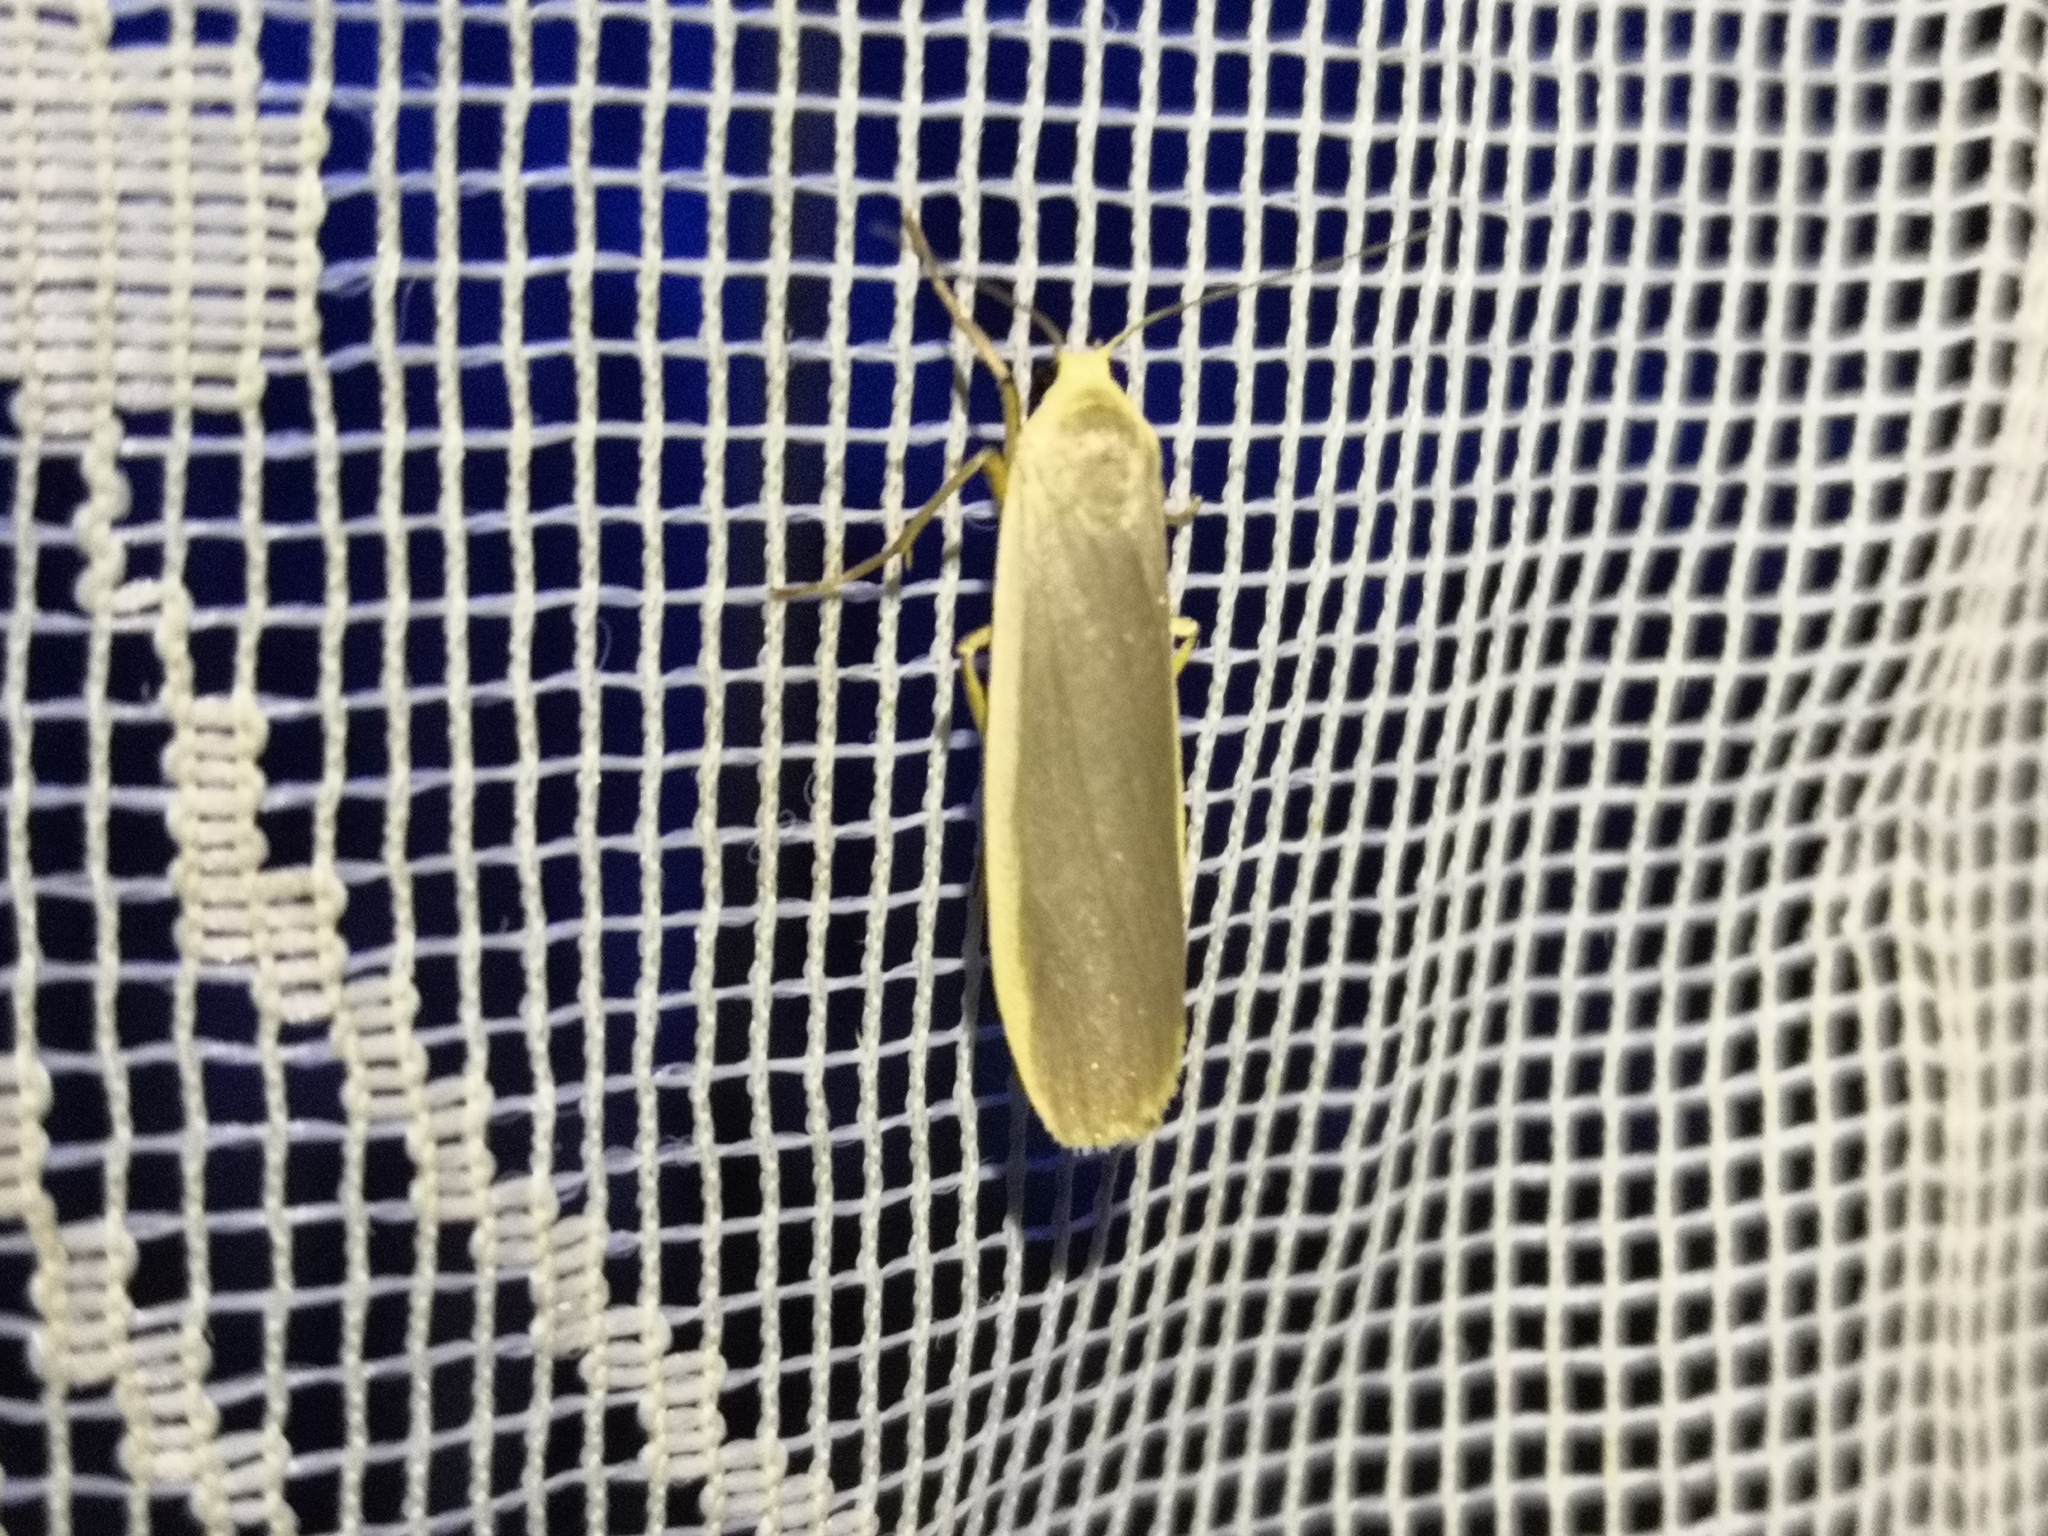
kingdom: Animalia
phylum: Arthropoda
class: Insecta
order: Lepidoptera
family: Erebidae
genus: Nyea
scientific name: Nyea lurideola
